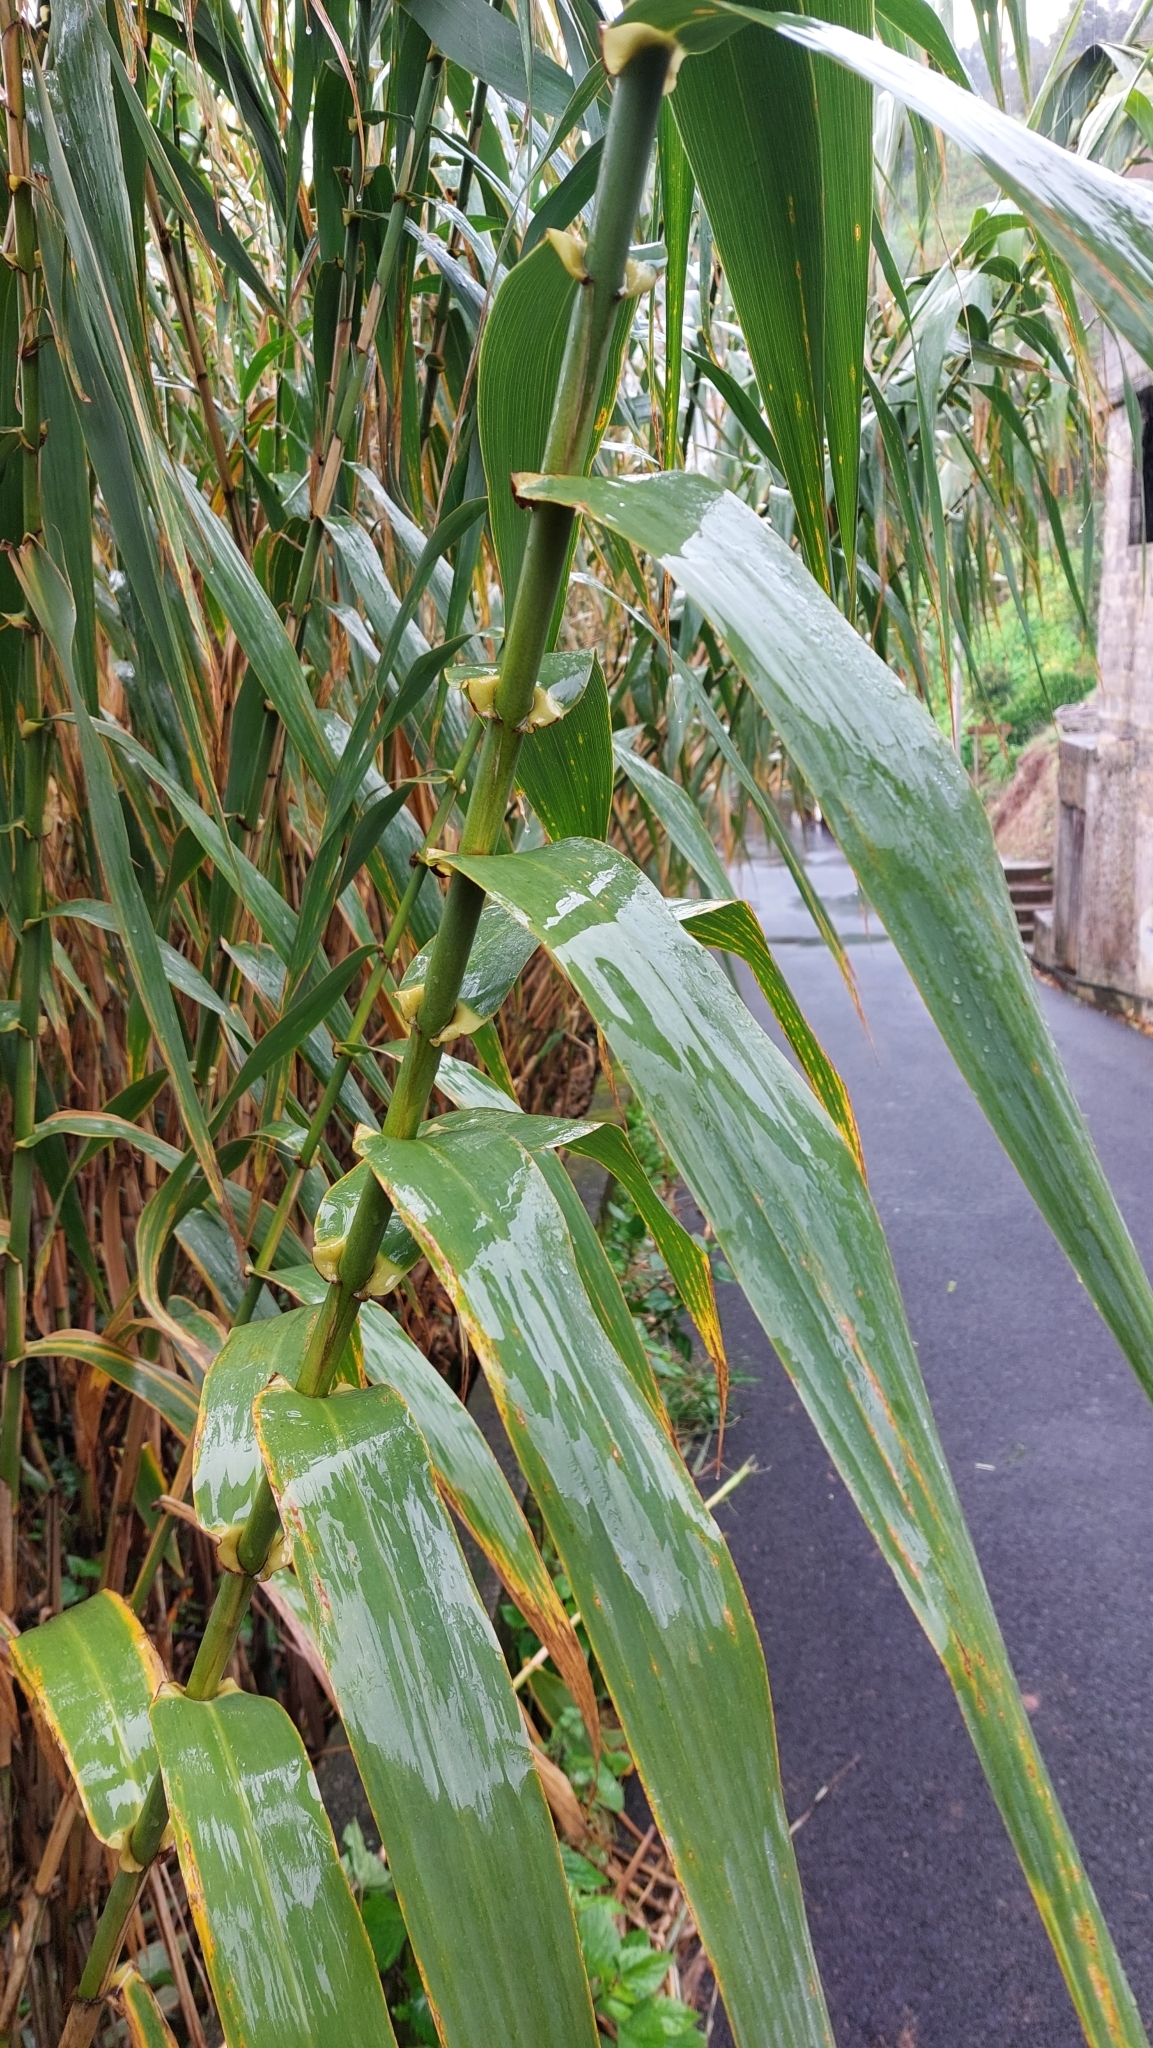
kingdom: Plantae
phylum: Tracheophyta
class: Liliopsida
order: Poales
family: Poaceae
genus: Arundo
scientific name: Arundo donax
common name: Giant reed
